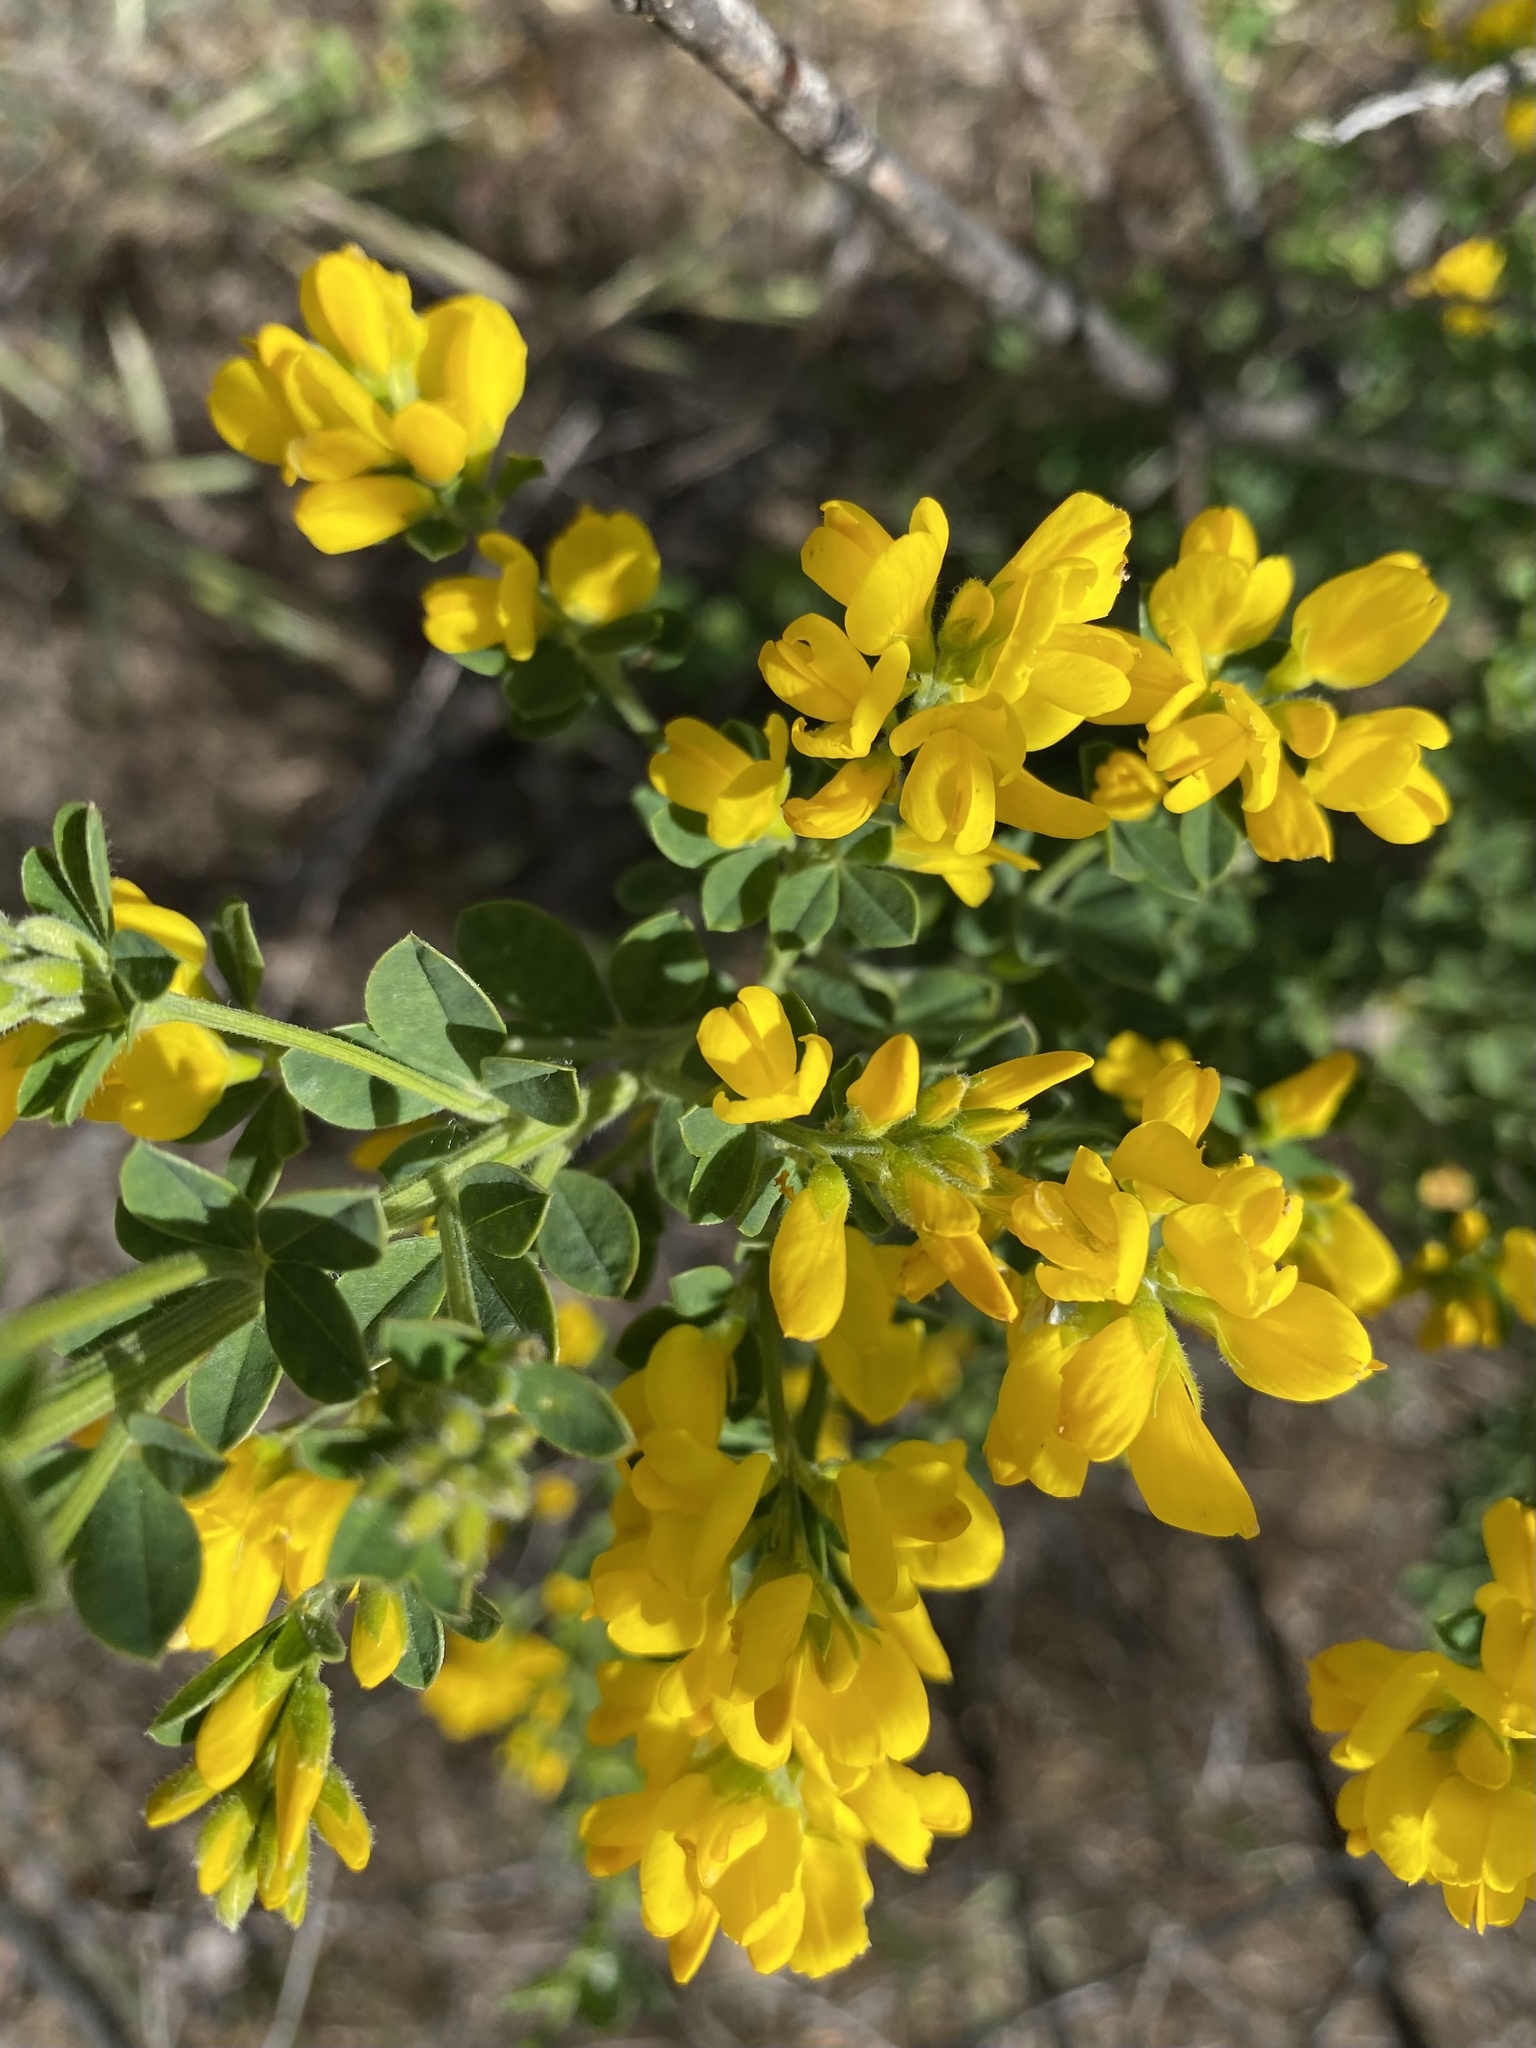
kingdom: Plantae
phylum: Tracheophyta
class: Magnoliopsida
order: Fabales
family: Fabaceae
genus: Genista
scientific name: Genista monspessulana
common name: Montpellier broom
